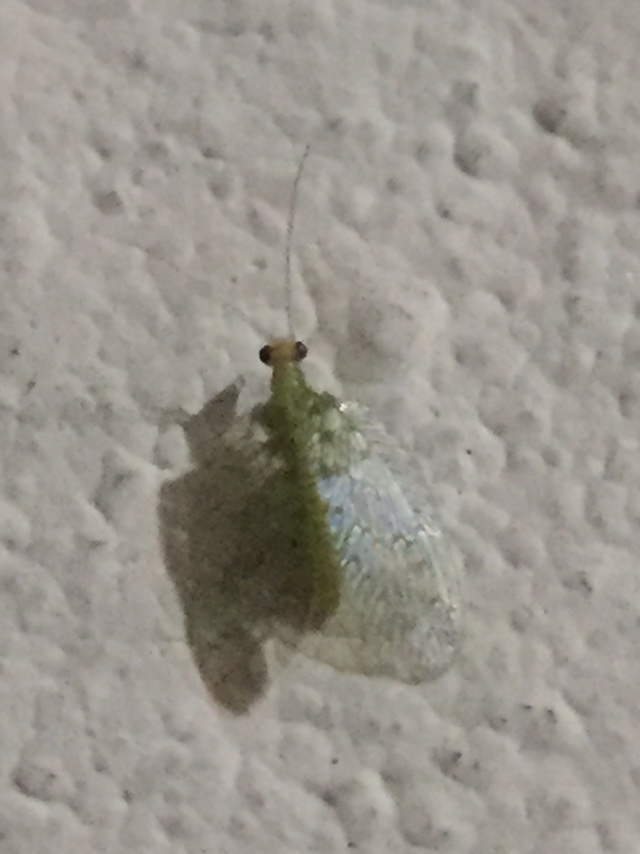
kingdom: Animalia
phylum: Arthropoda
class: Insecta
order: Neuroptera
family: Hemerobiidae
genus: Notiobiella
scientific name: Notiobiella viridinervis
